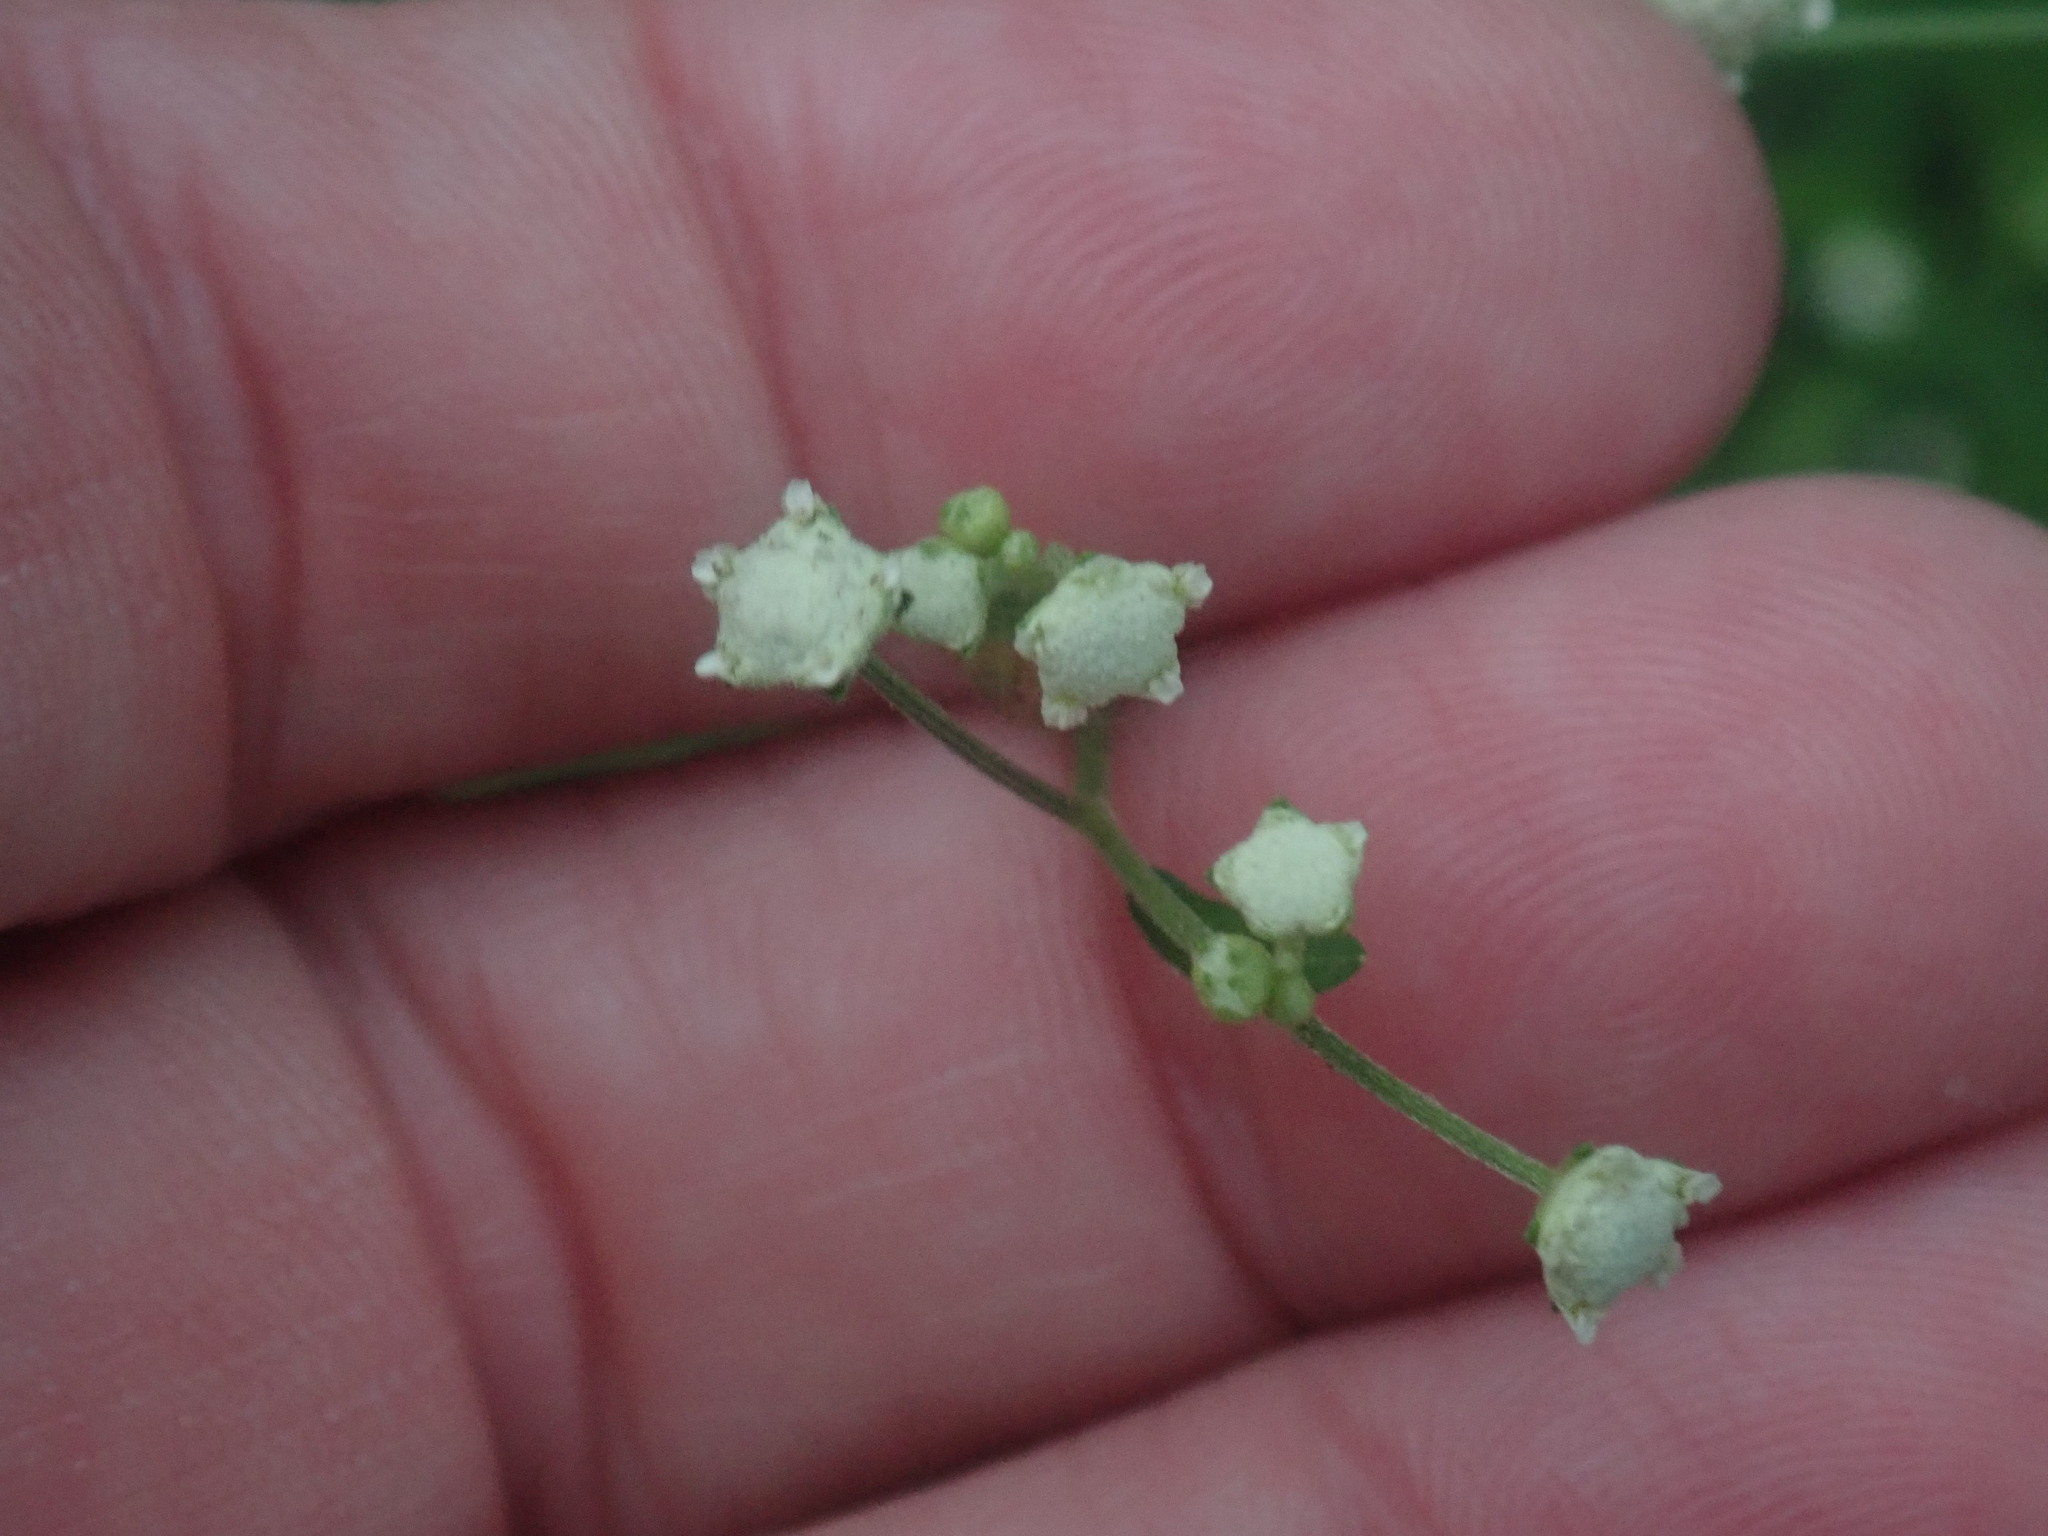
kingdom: Plantae
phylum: Tracheophyta
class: Magnoliopsida
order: Asterales
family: Asteraceae
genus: Parthenium
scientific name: Parthenium hysterophorus
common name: Santa maria feverfew
